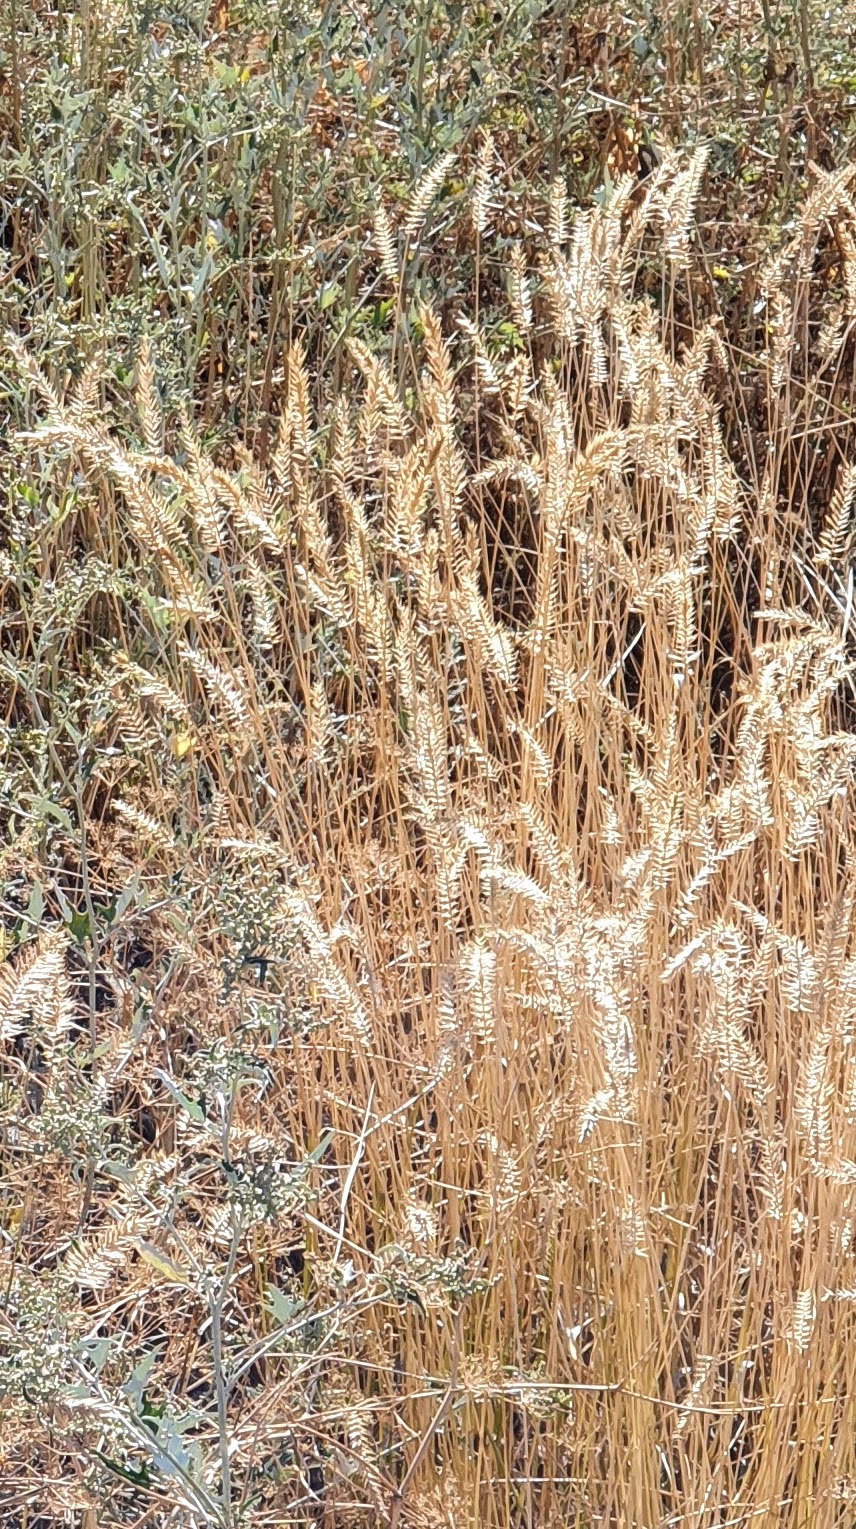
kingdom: Plantae
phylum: Tracheophyta
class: Liliopsida
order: Poales
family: Poaceae
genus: Agropyron
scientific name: Agropyron cristatum
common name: Crested wheatgrass
